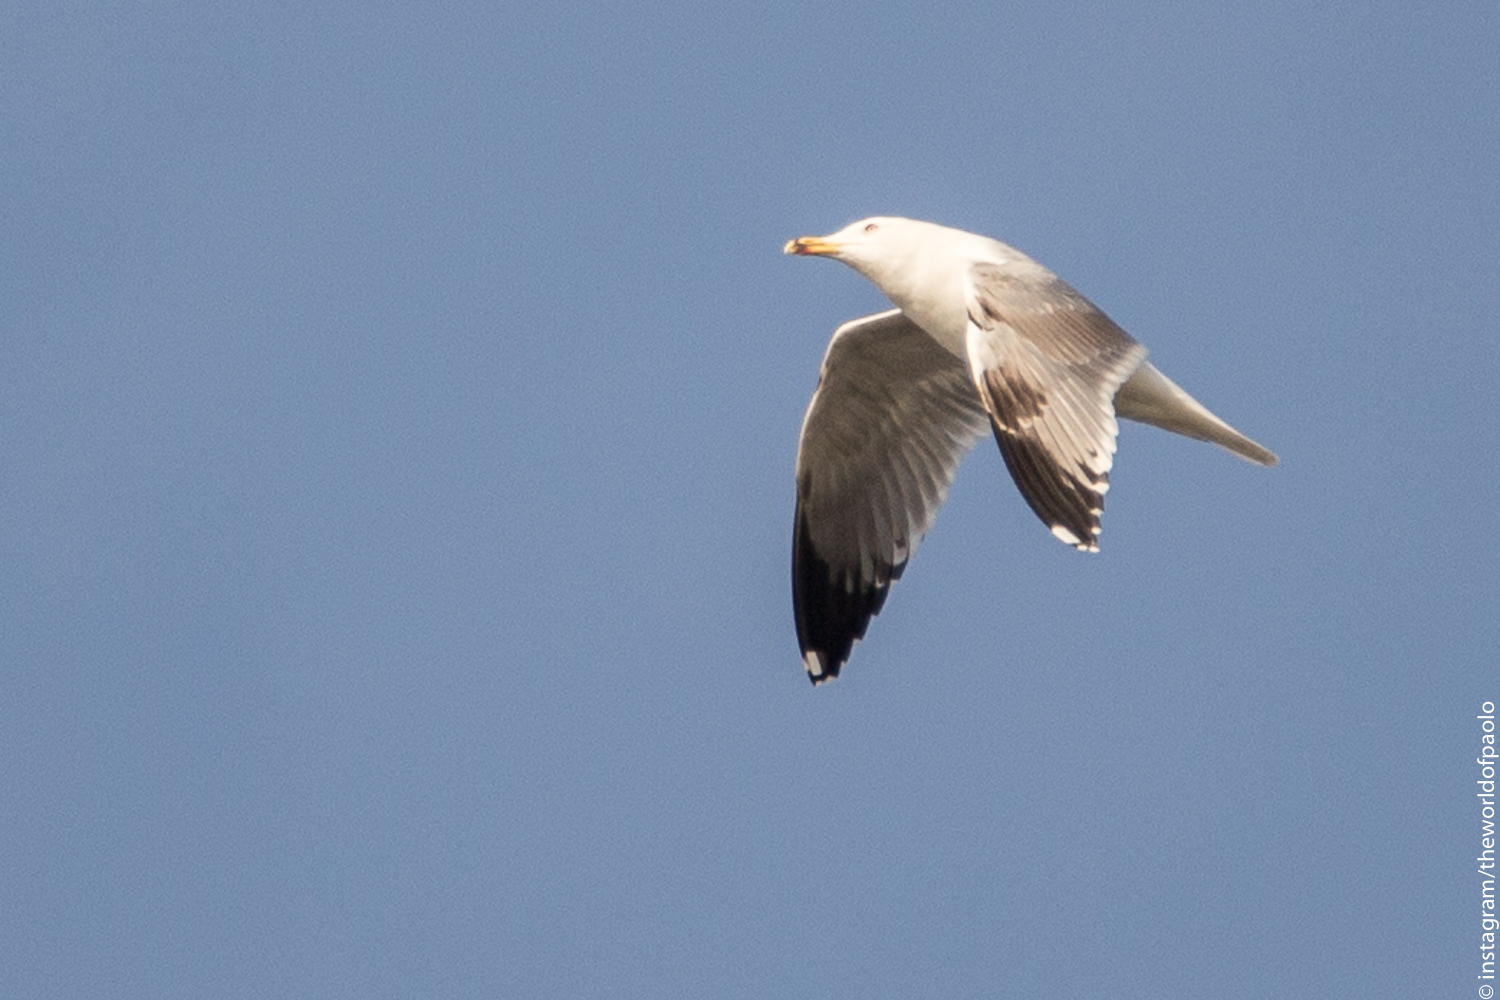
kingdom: Animalia
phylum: Chordata
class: Aves
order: Charadriiformes
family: Laridae
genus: Larus
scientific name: Larus michahellis
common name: Yellow-legged gull
